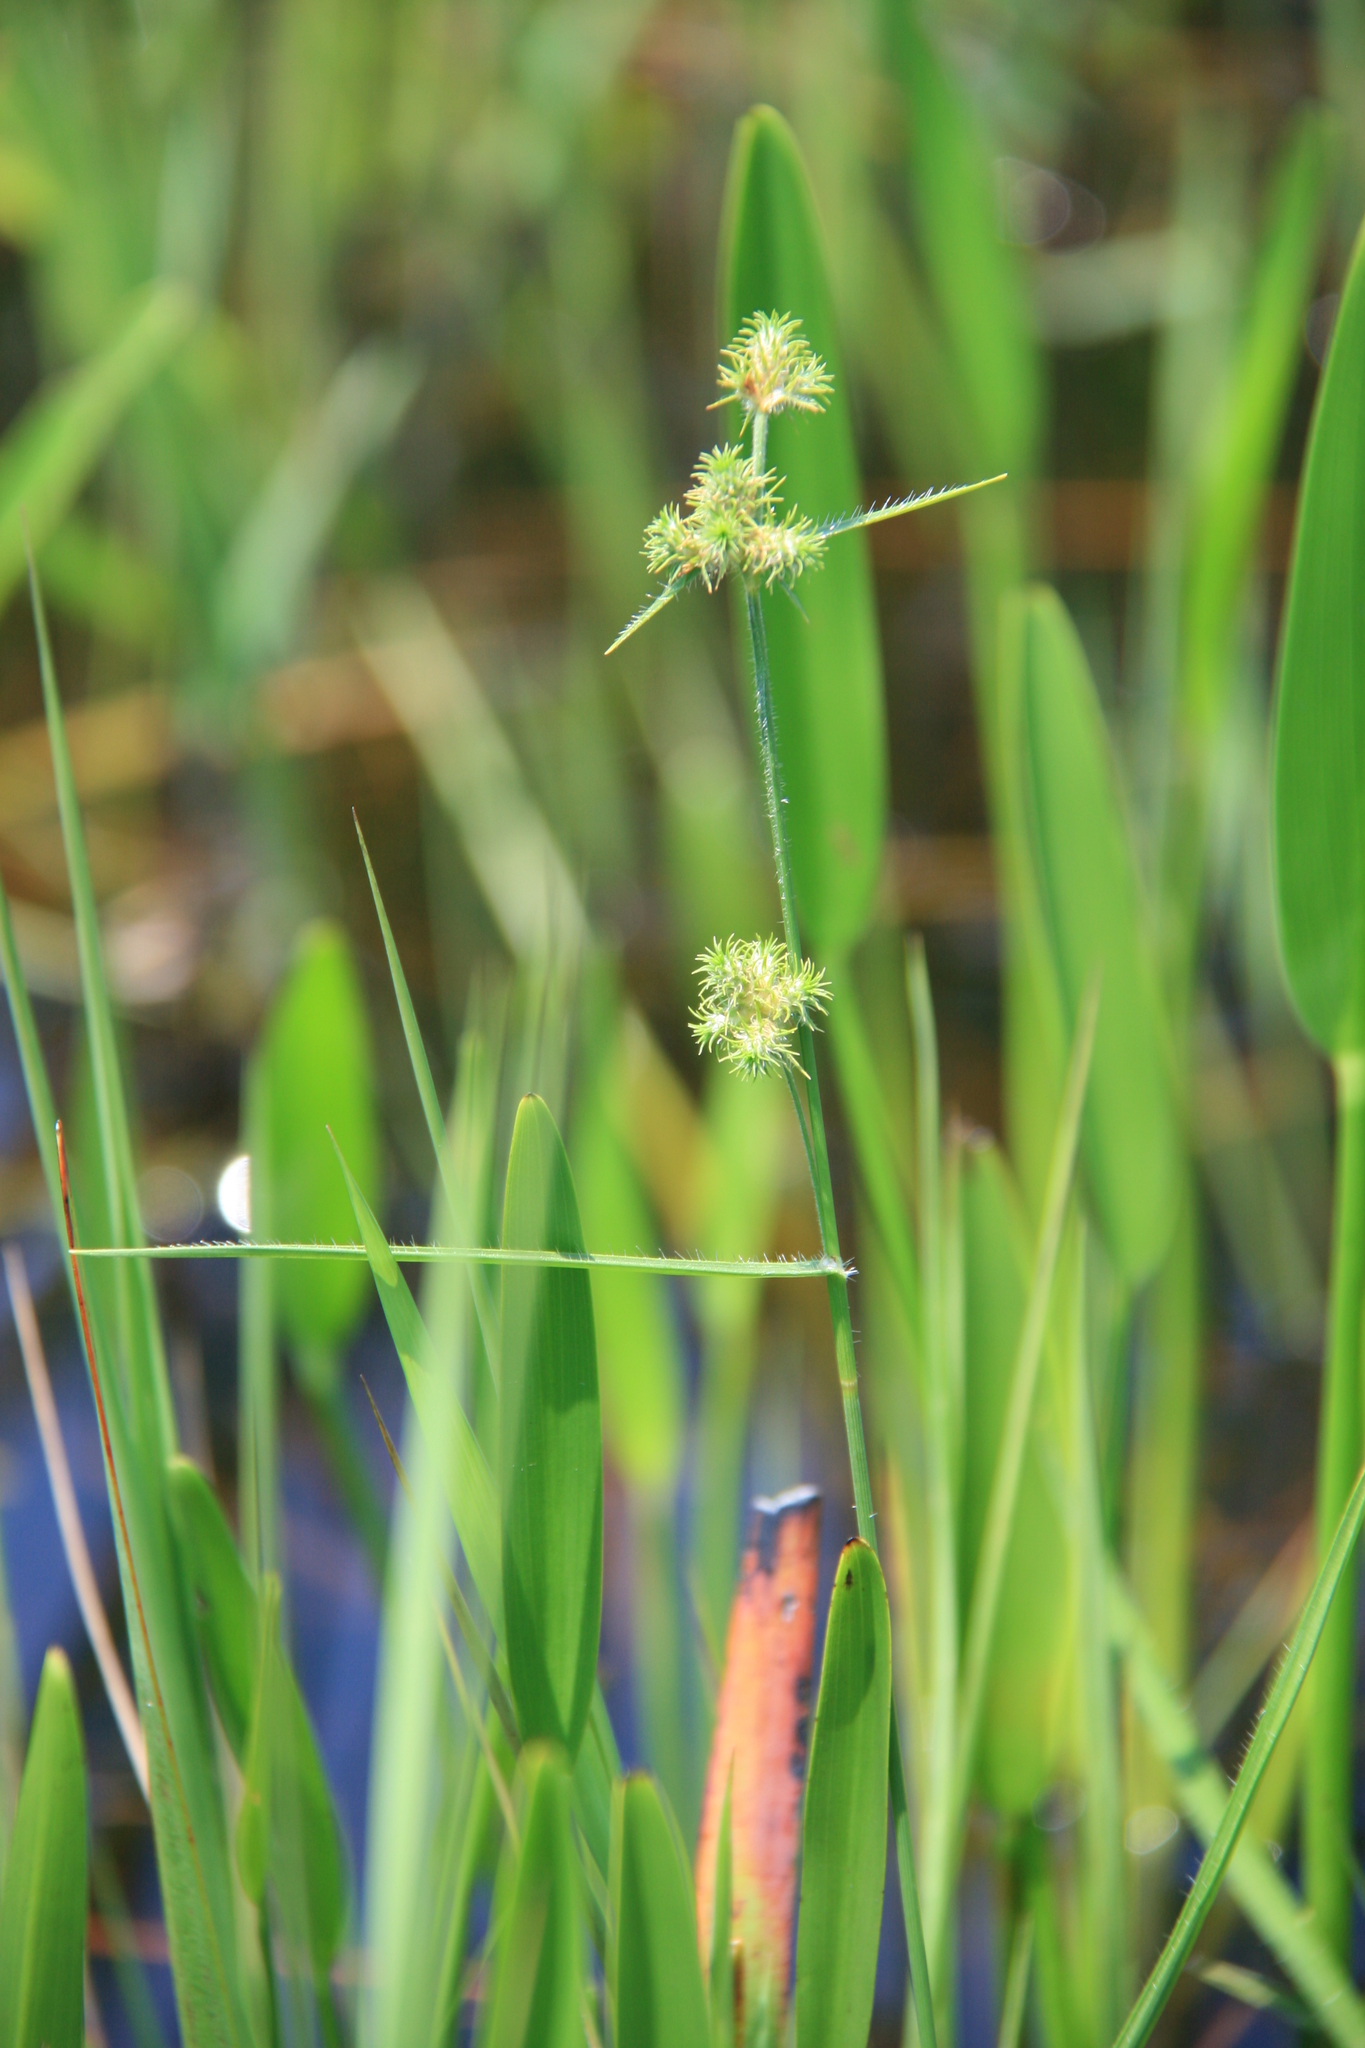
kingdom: Plantae
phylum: Tracheophyta
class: Liliopsida
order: Poales
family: Cyperaceae
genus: Fuirena
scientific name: Fuirena breviseta
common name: Saltmarsh umbrella sedge
